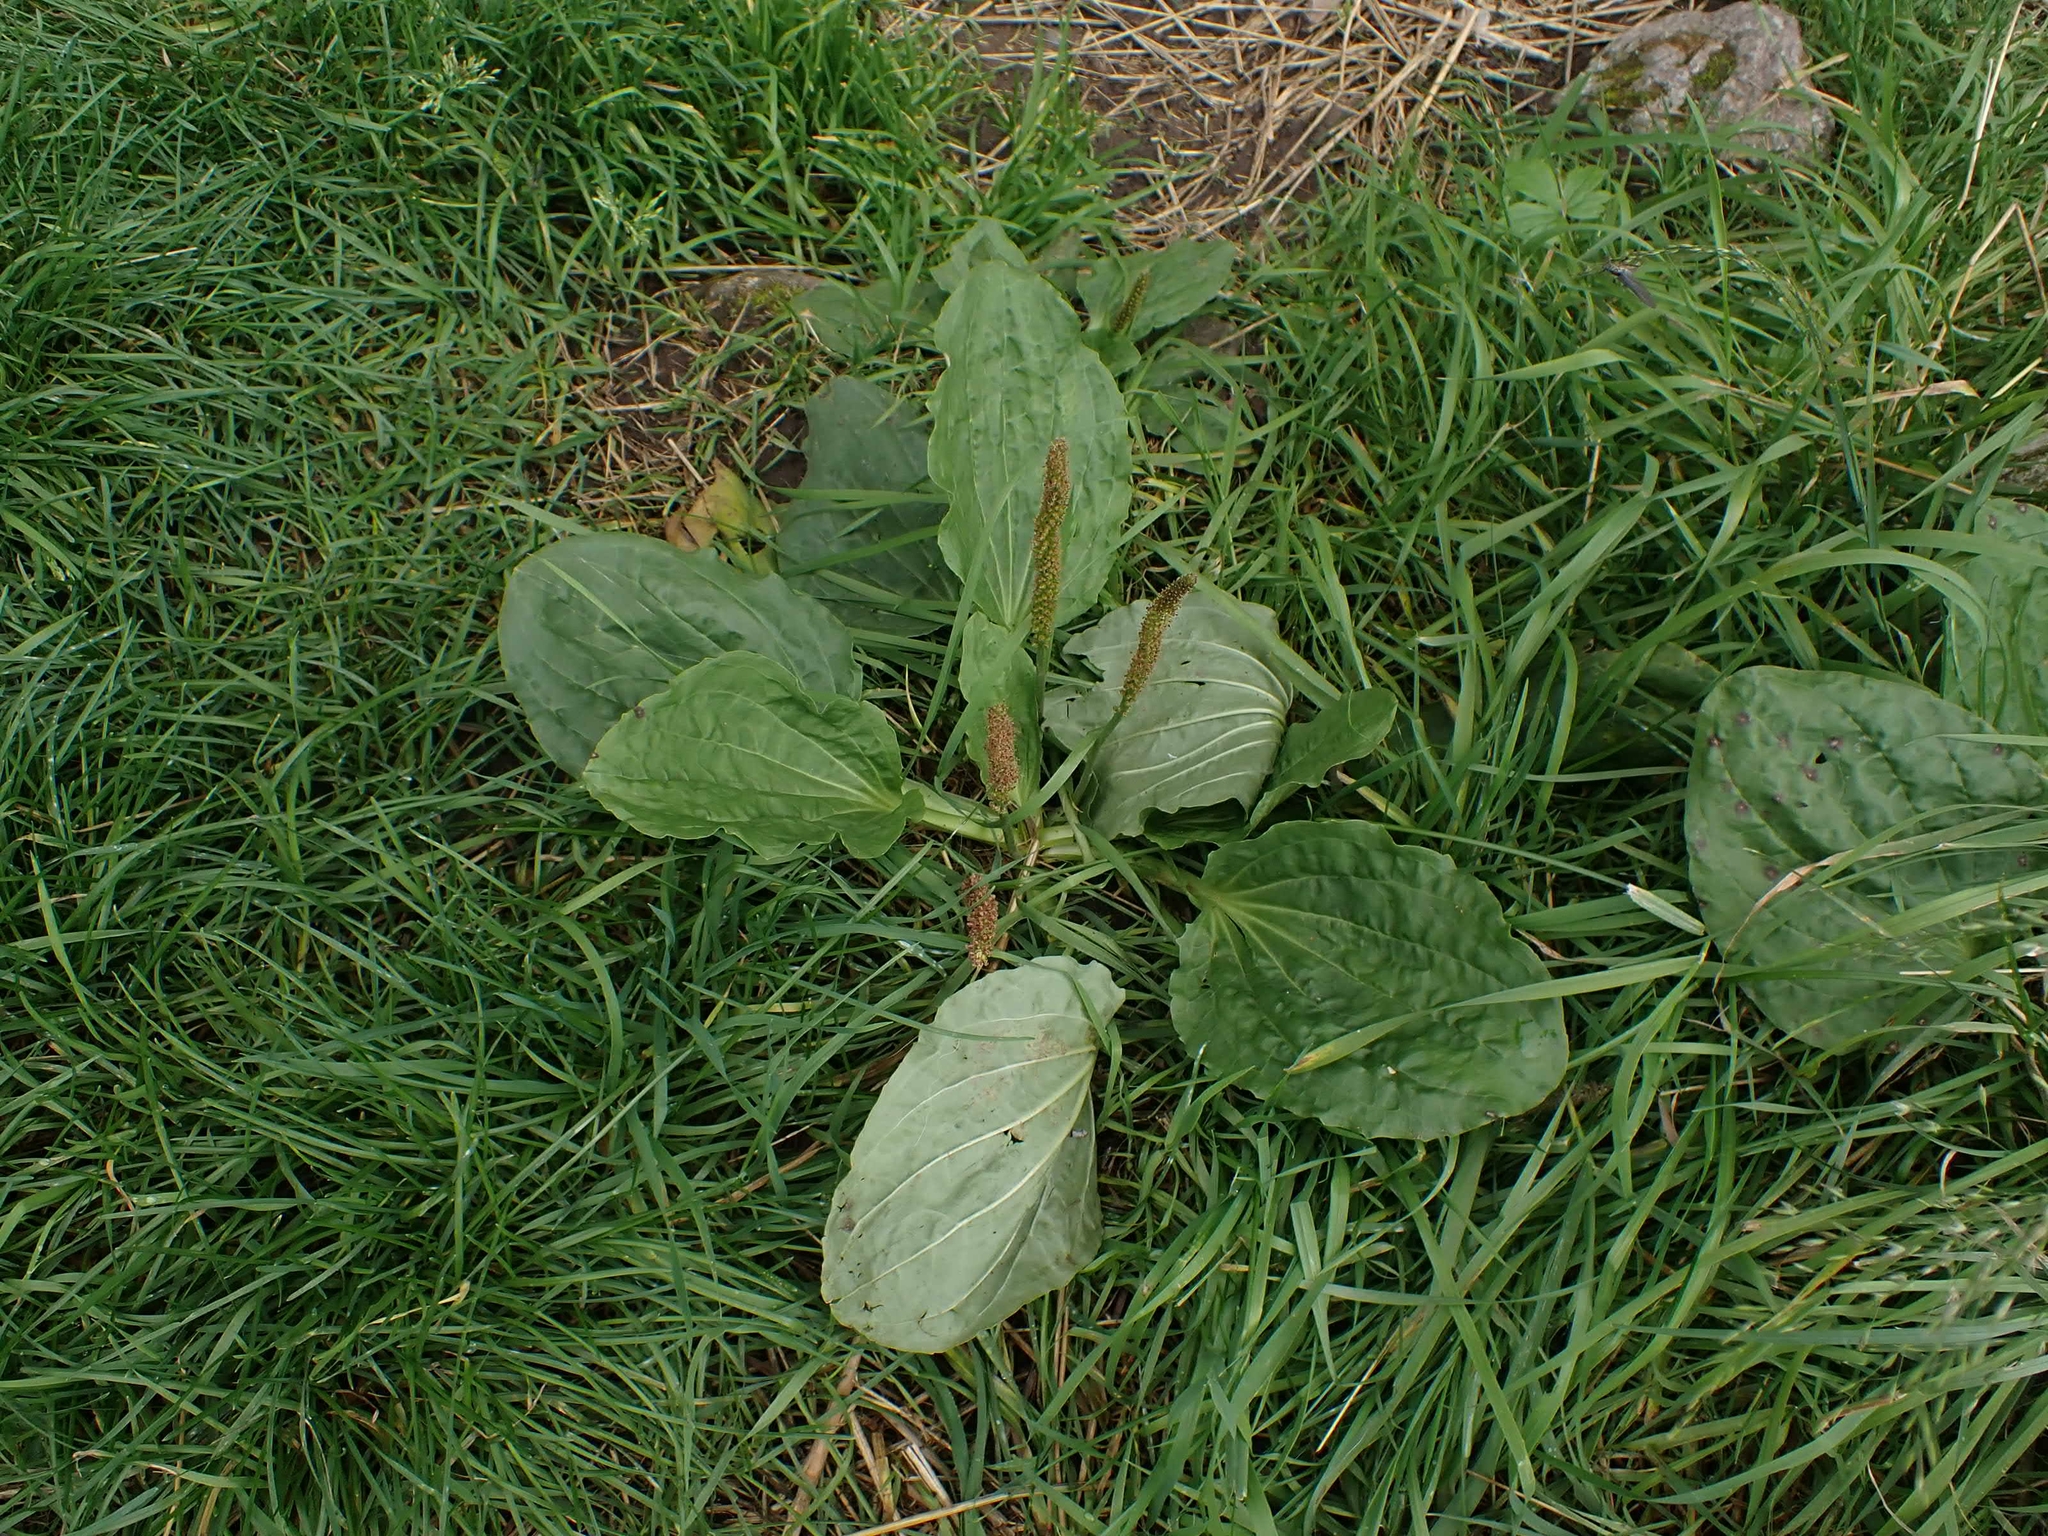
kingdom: Plantae
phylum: Tracheophyta
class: Magnoliopsida
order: Lamiales
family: Plantaginaceae
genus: Plantago
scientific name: Plantago major
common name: Common plantain
